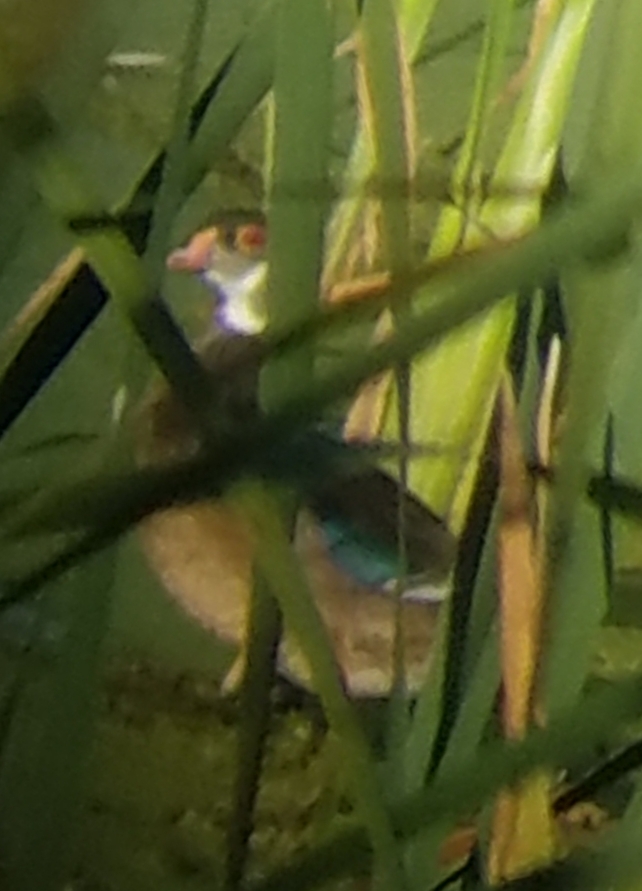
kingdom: Animalia
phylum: Chordata
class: Aves
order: Anseriformes
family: Anatidae
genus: Aix
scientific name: Aix sponsa
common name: Wood duck
